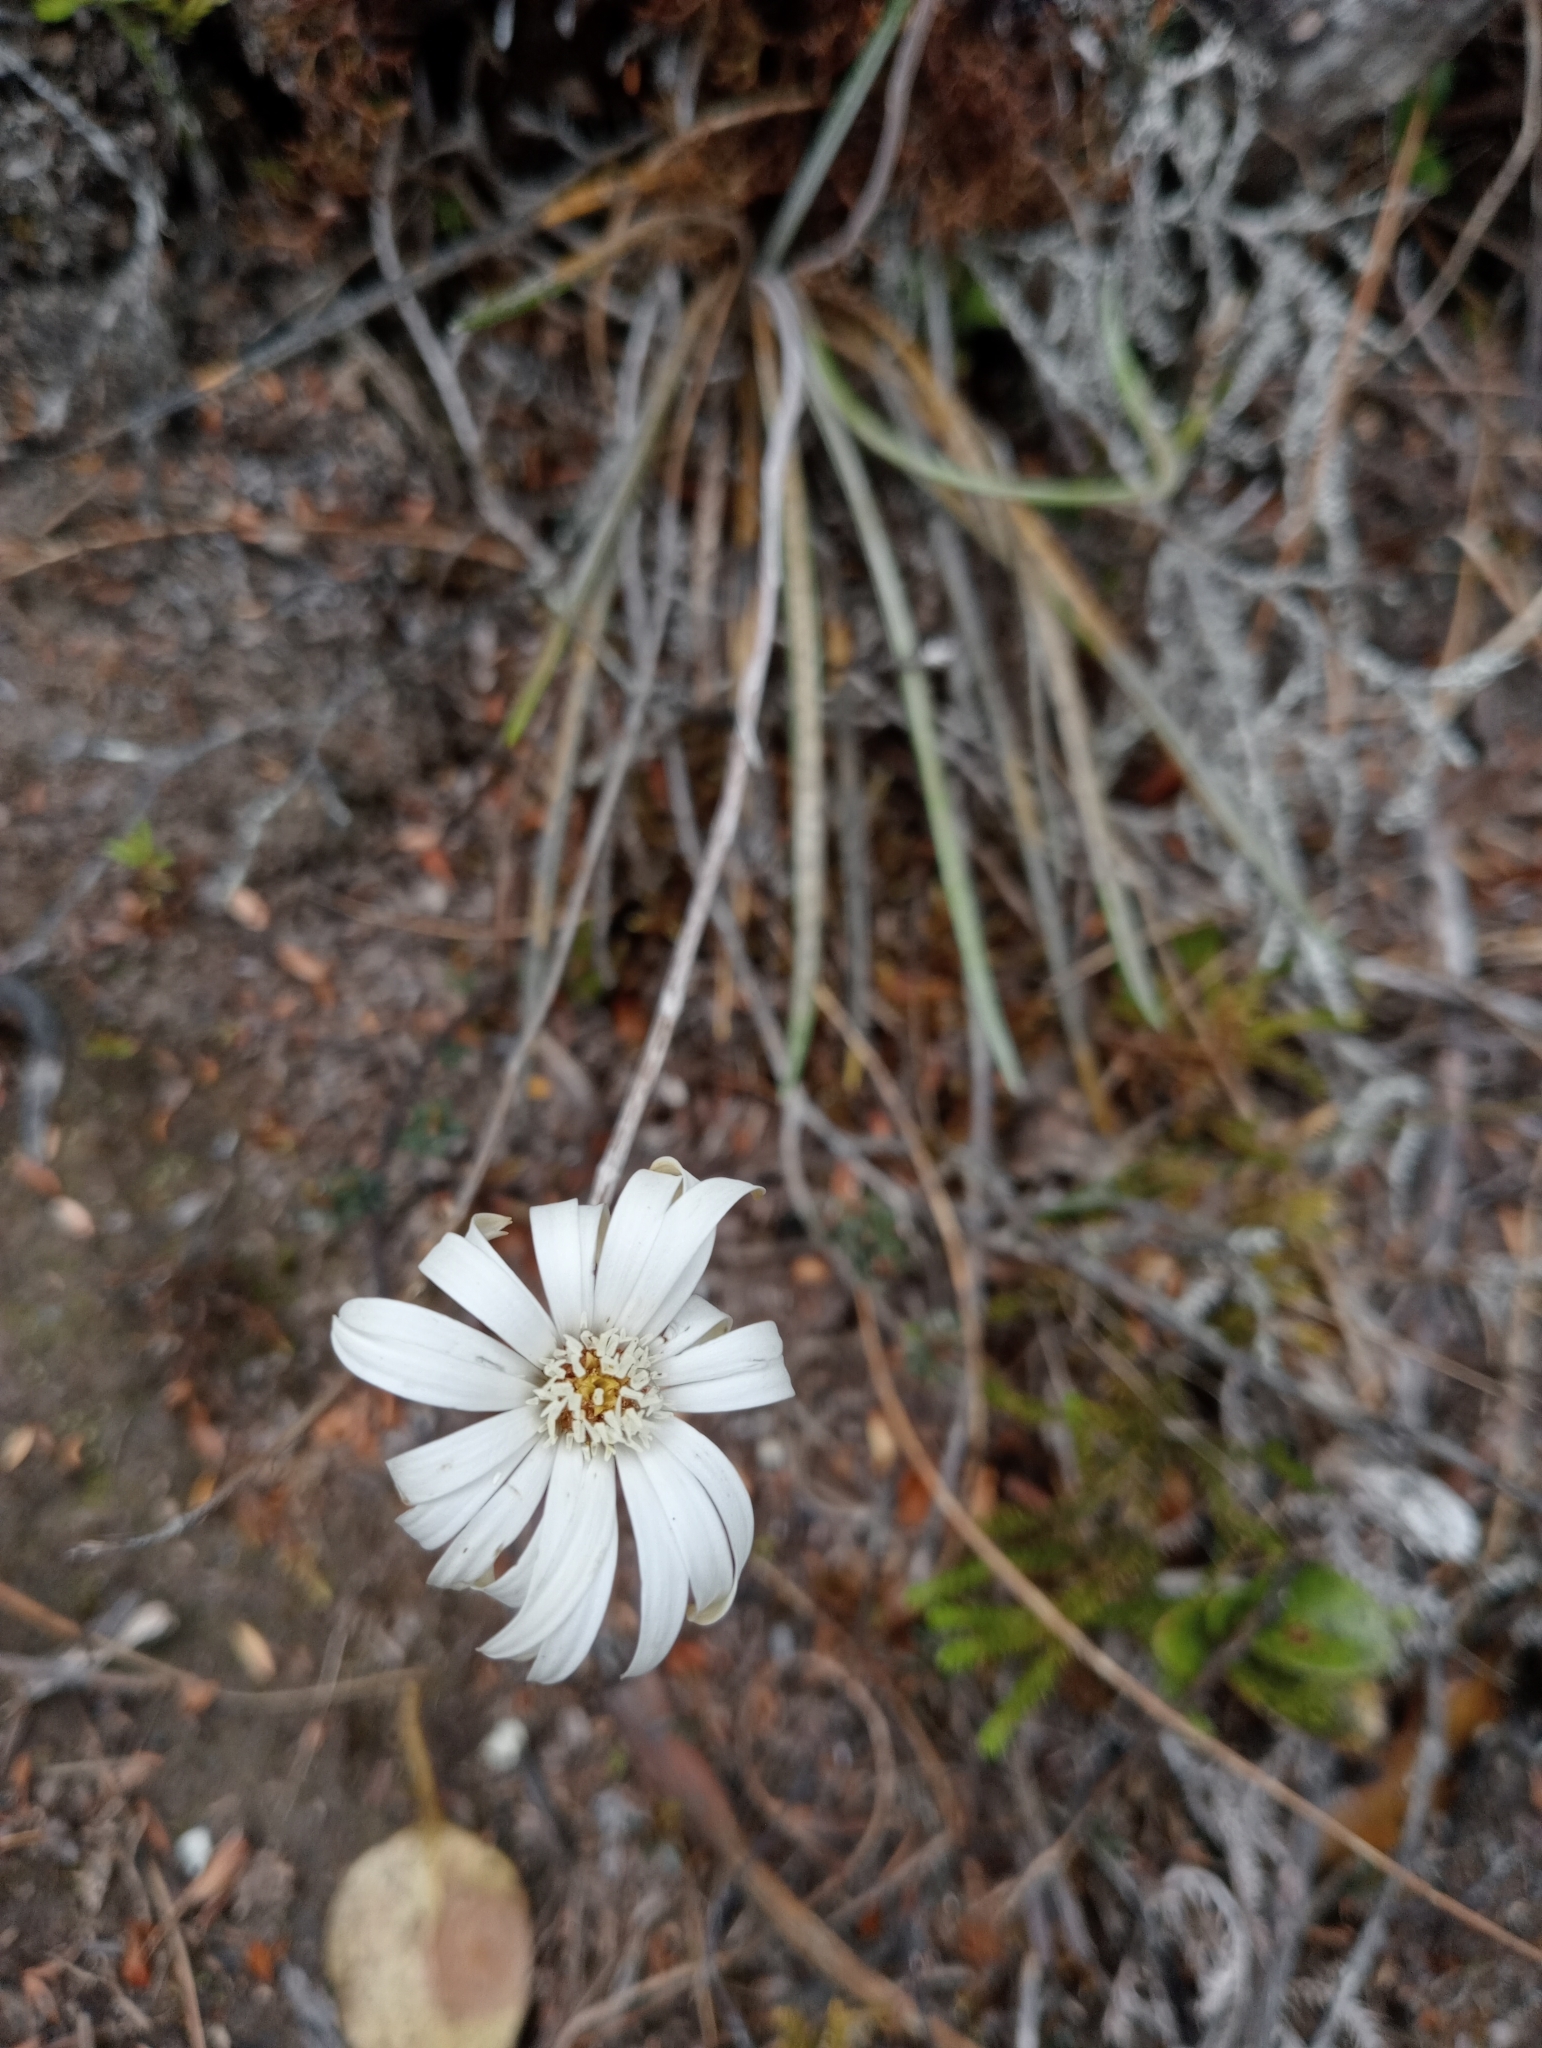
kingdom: Plantae
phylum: Tracheophyta
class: Magnoliopsida
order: Asterales
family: Asteraceae
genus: Celmisia
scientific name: Celmisia gracilenta
